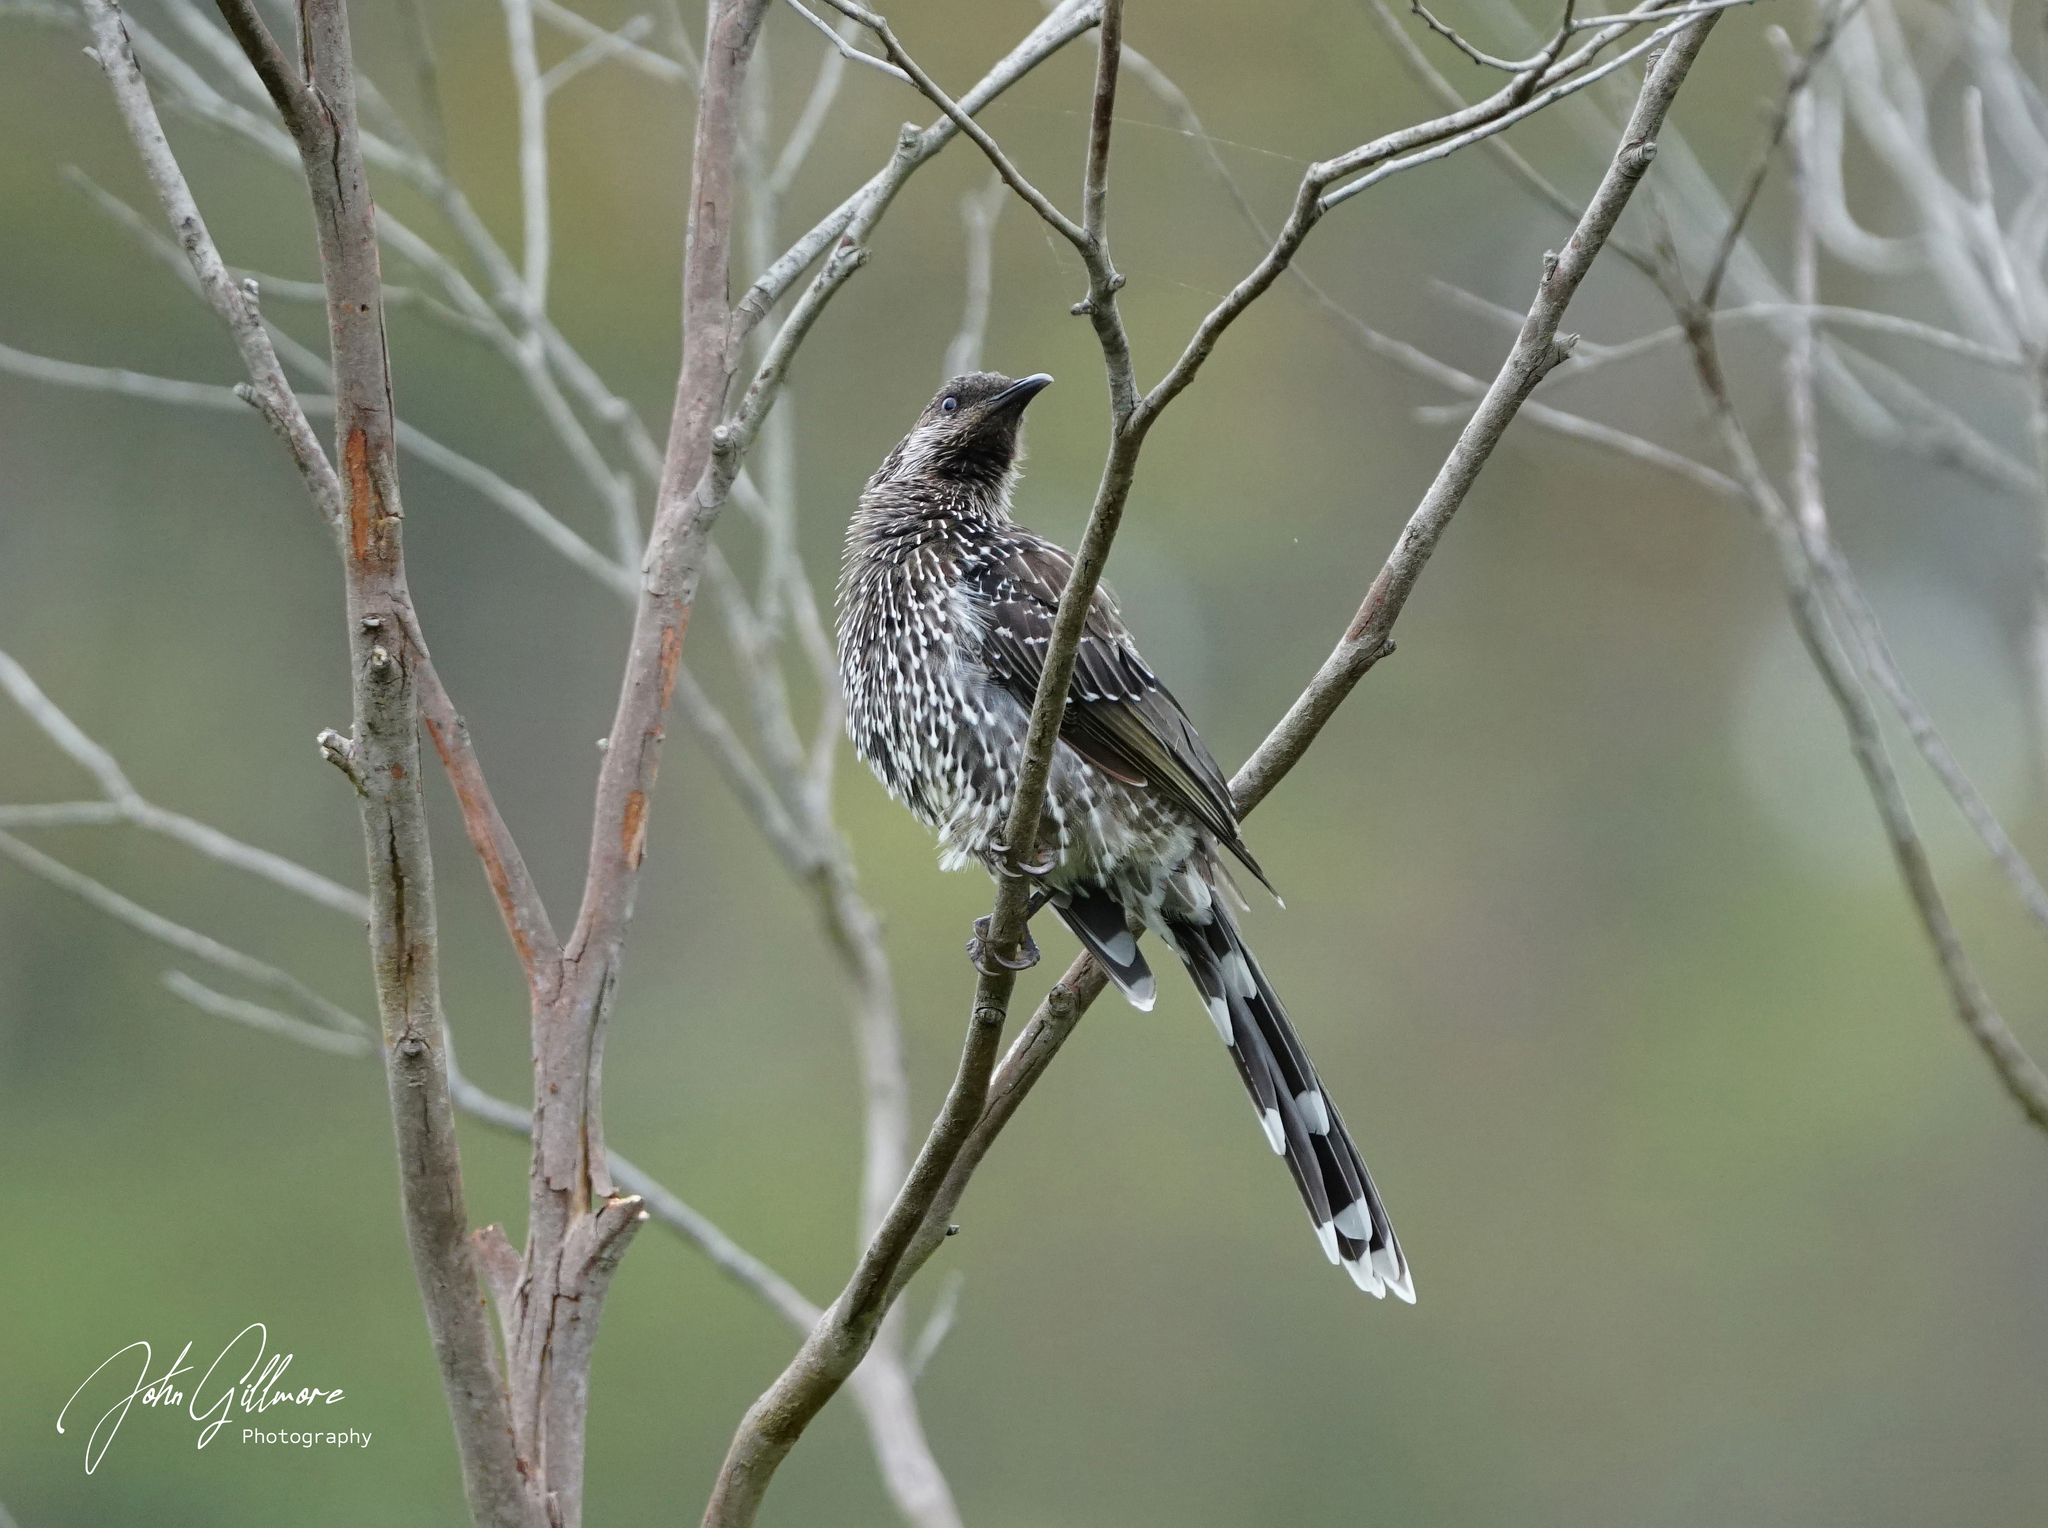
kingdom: Animalia
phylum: Chordata
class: Aves
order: Passeriformes
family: Meliphagidae
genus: Anthochaera
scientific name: Anthochaera chrysoptera
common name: Little wattlebird
